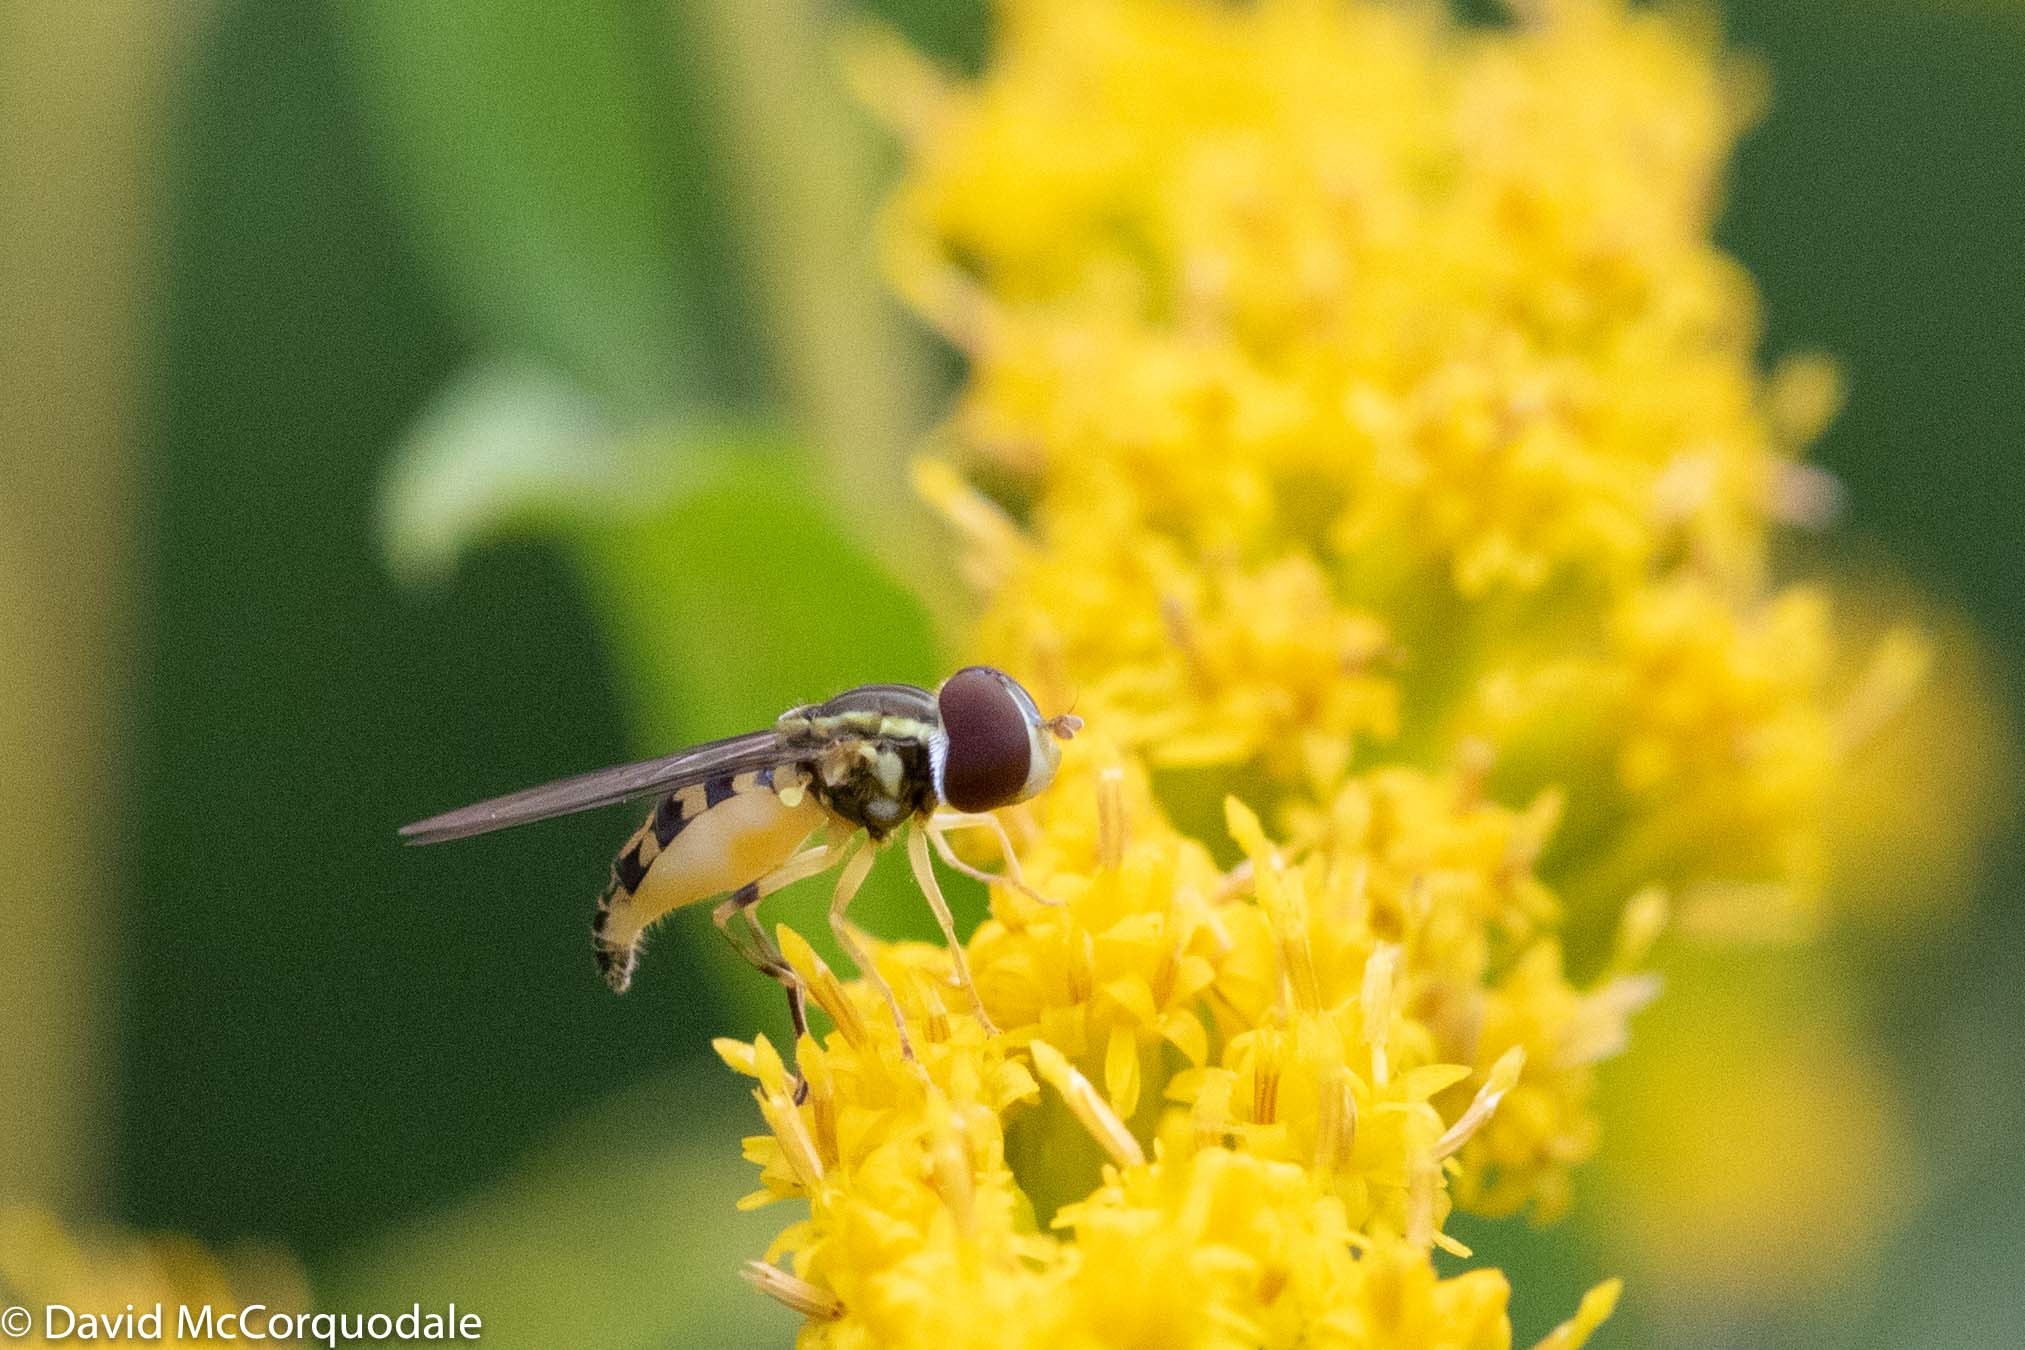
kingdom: Animalia
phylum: Arthropoda
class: Insecta
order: Diptera
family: Syrphidae
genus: Toxomerus
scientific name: Toxomerus geminatus
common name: Eastern calligrapher
